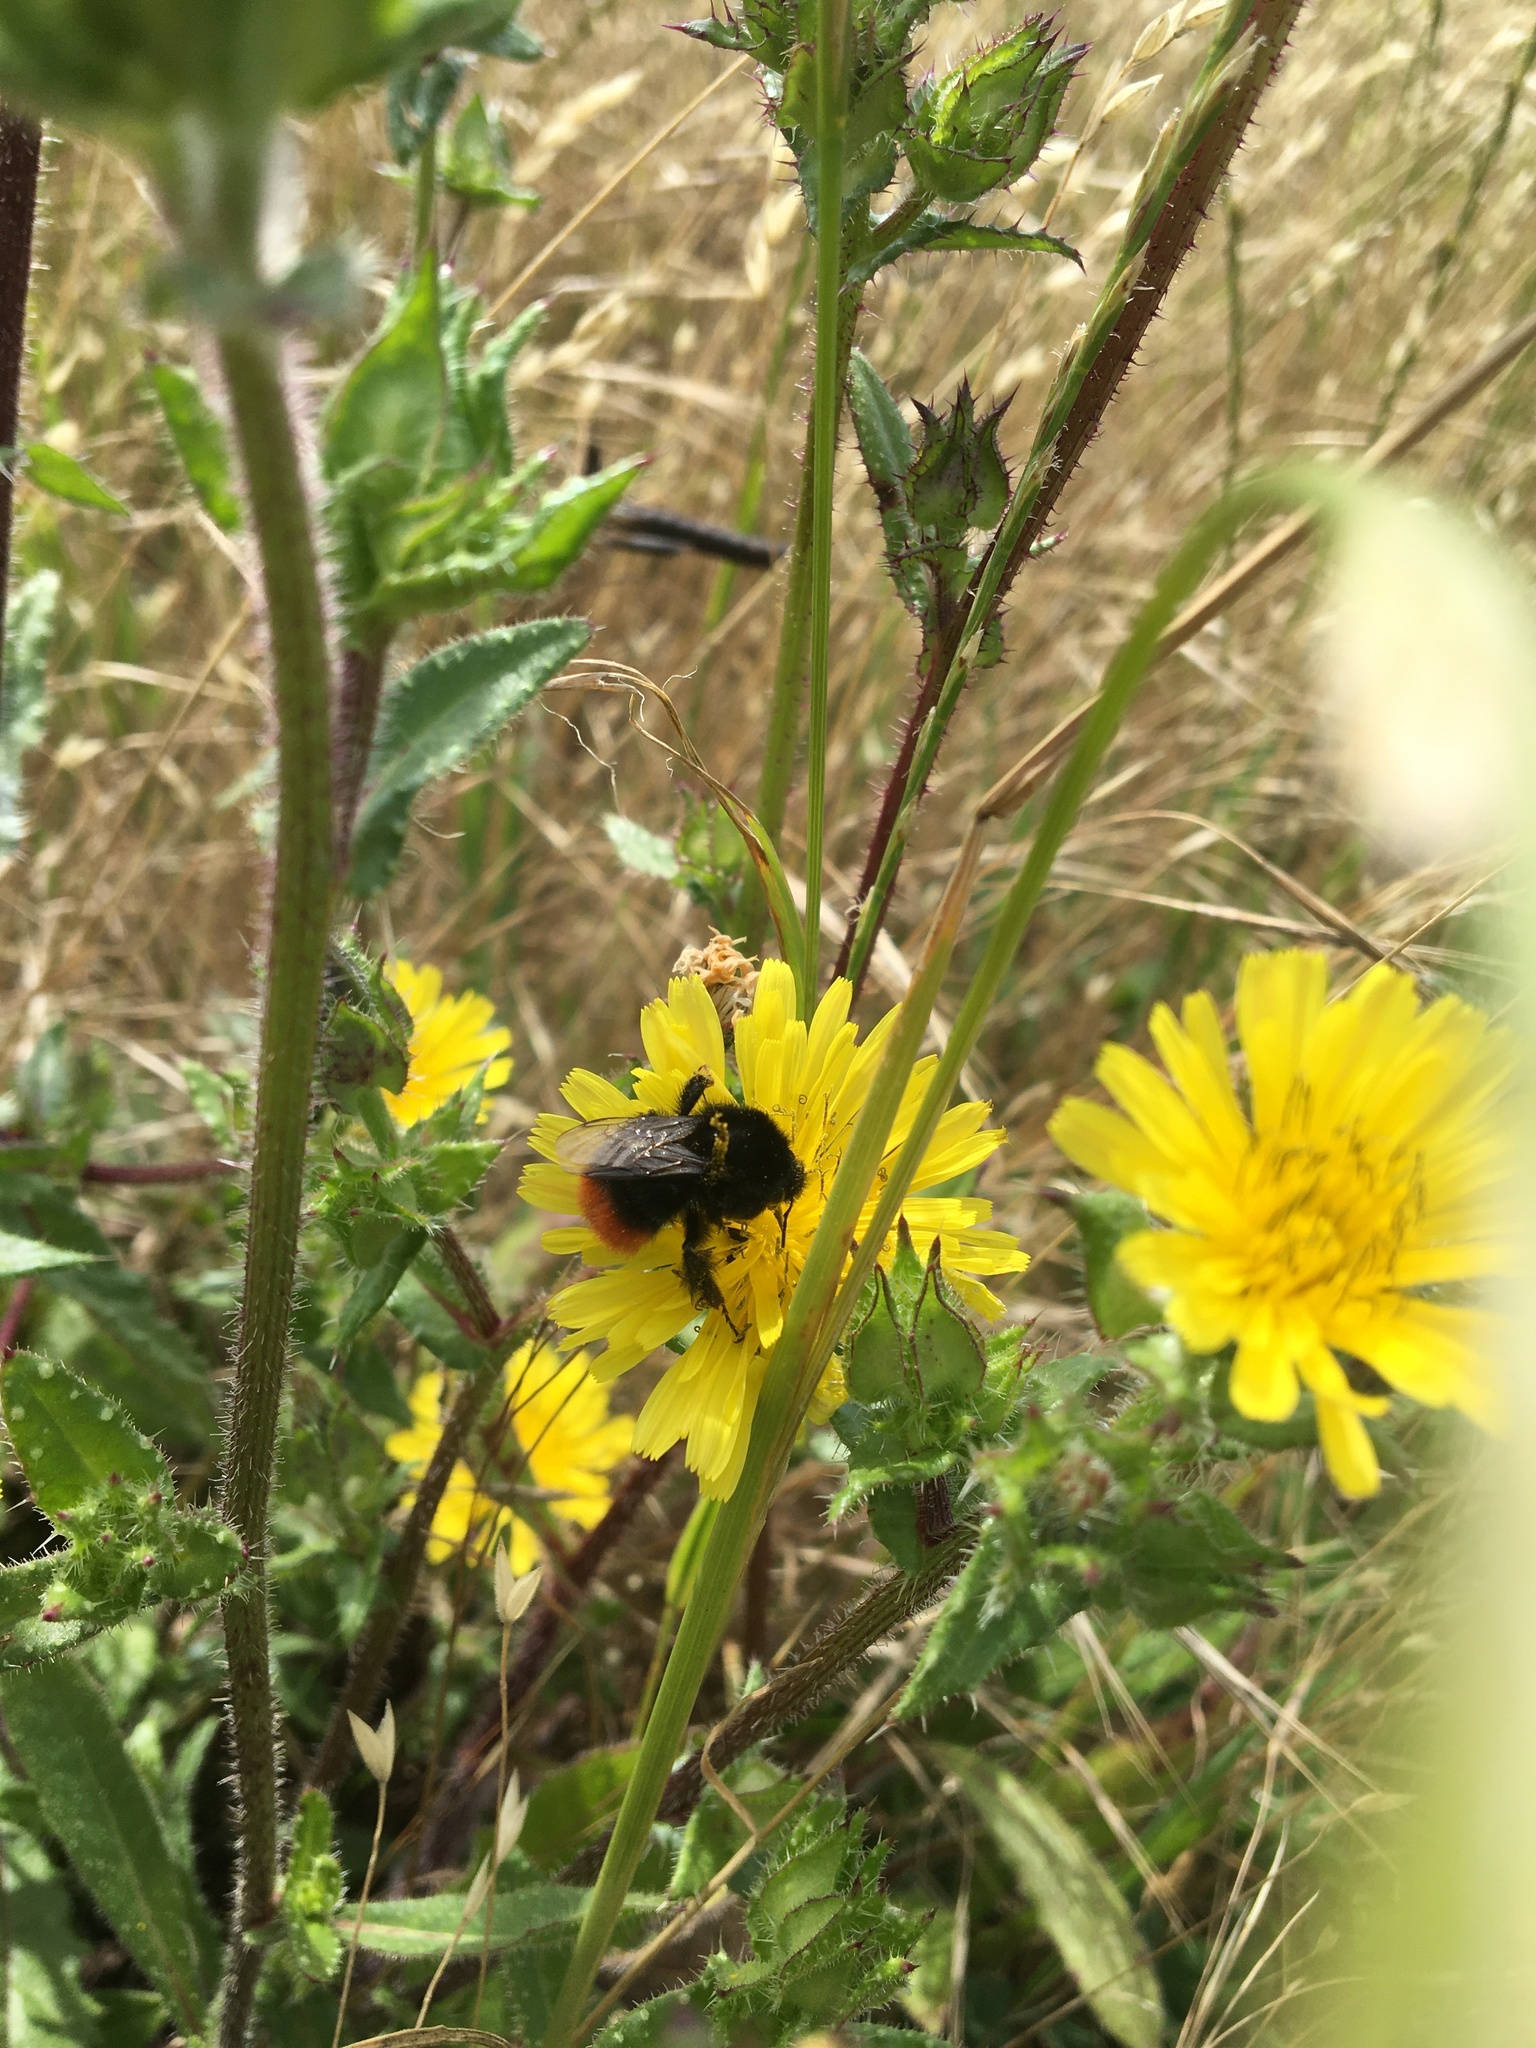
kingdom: Animalia
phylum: Arthropoda
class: Insecta
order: Hymenoptera
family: Apidae
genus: Bombus
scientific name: Bombus lapidarius
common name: Large red-tailed humble-bee
